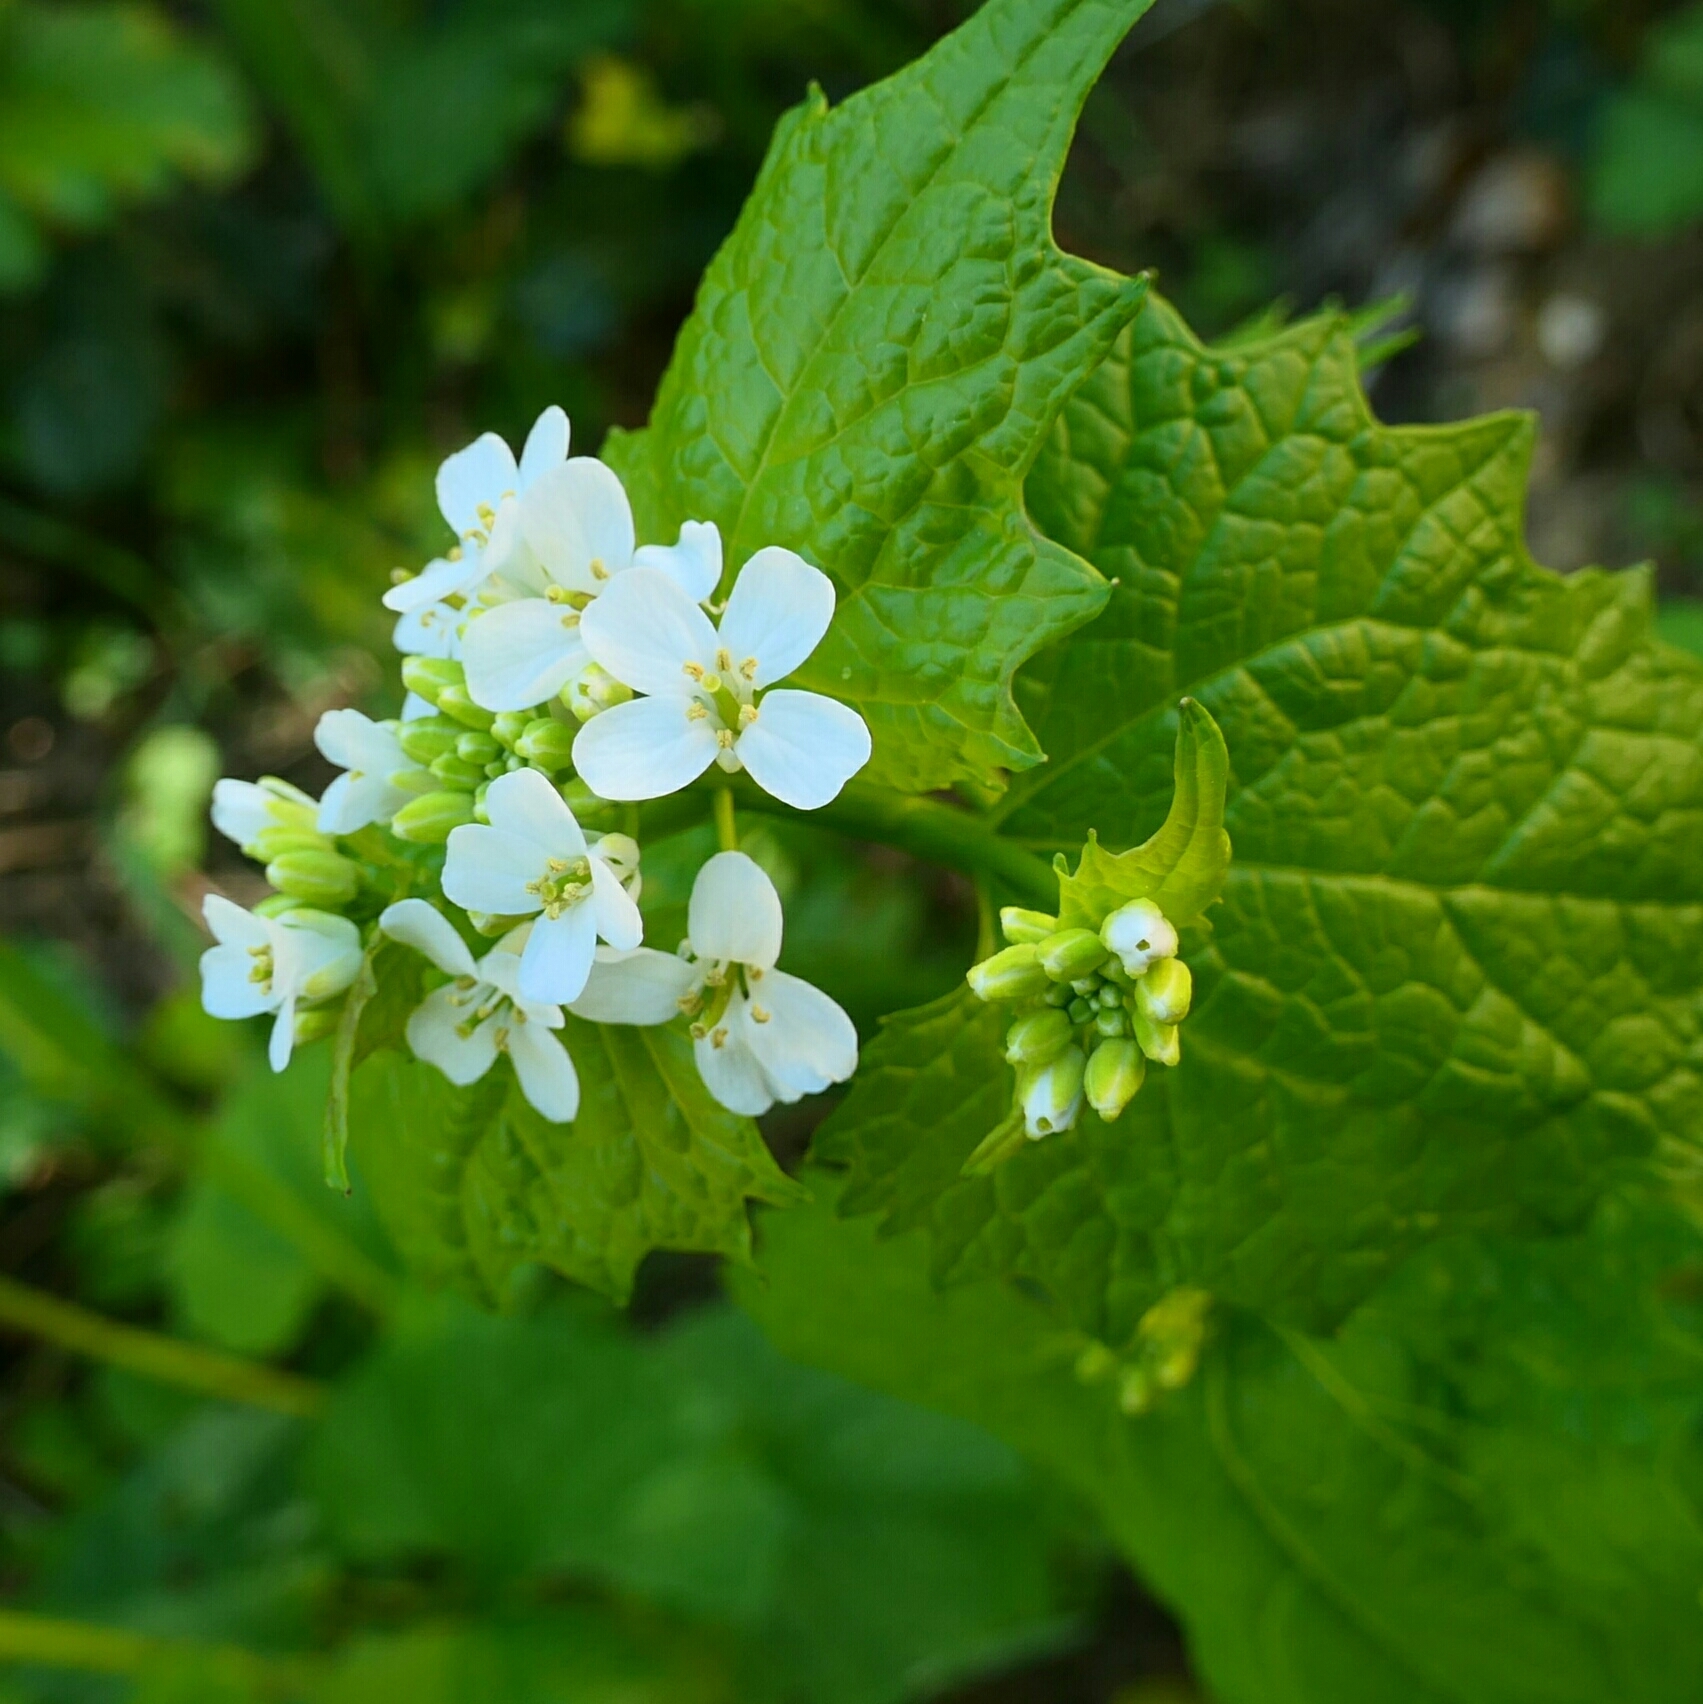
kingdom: Plantae
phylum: Tracheophyta
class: Magnoliopsida
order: Brassicales
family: Brassicaceae
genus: Alliaria
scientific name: Alliaria petiolata
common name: Garlic mustard
